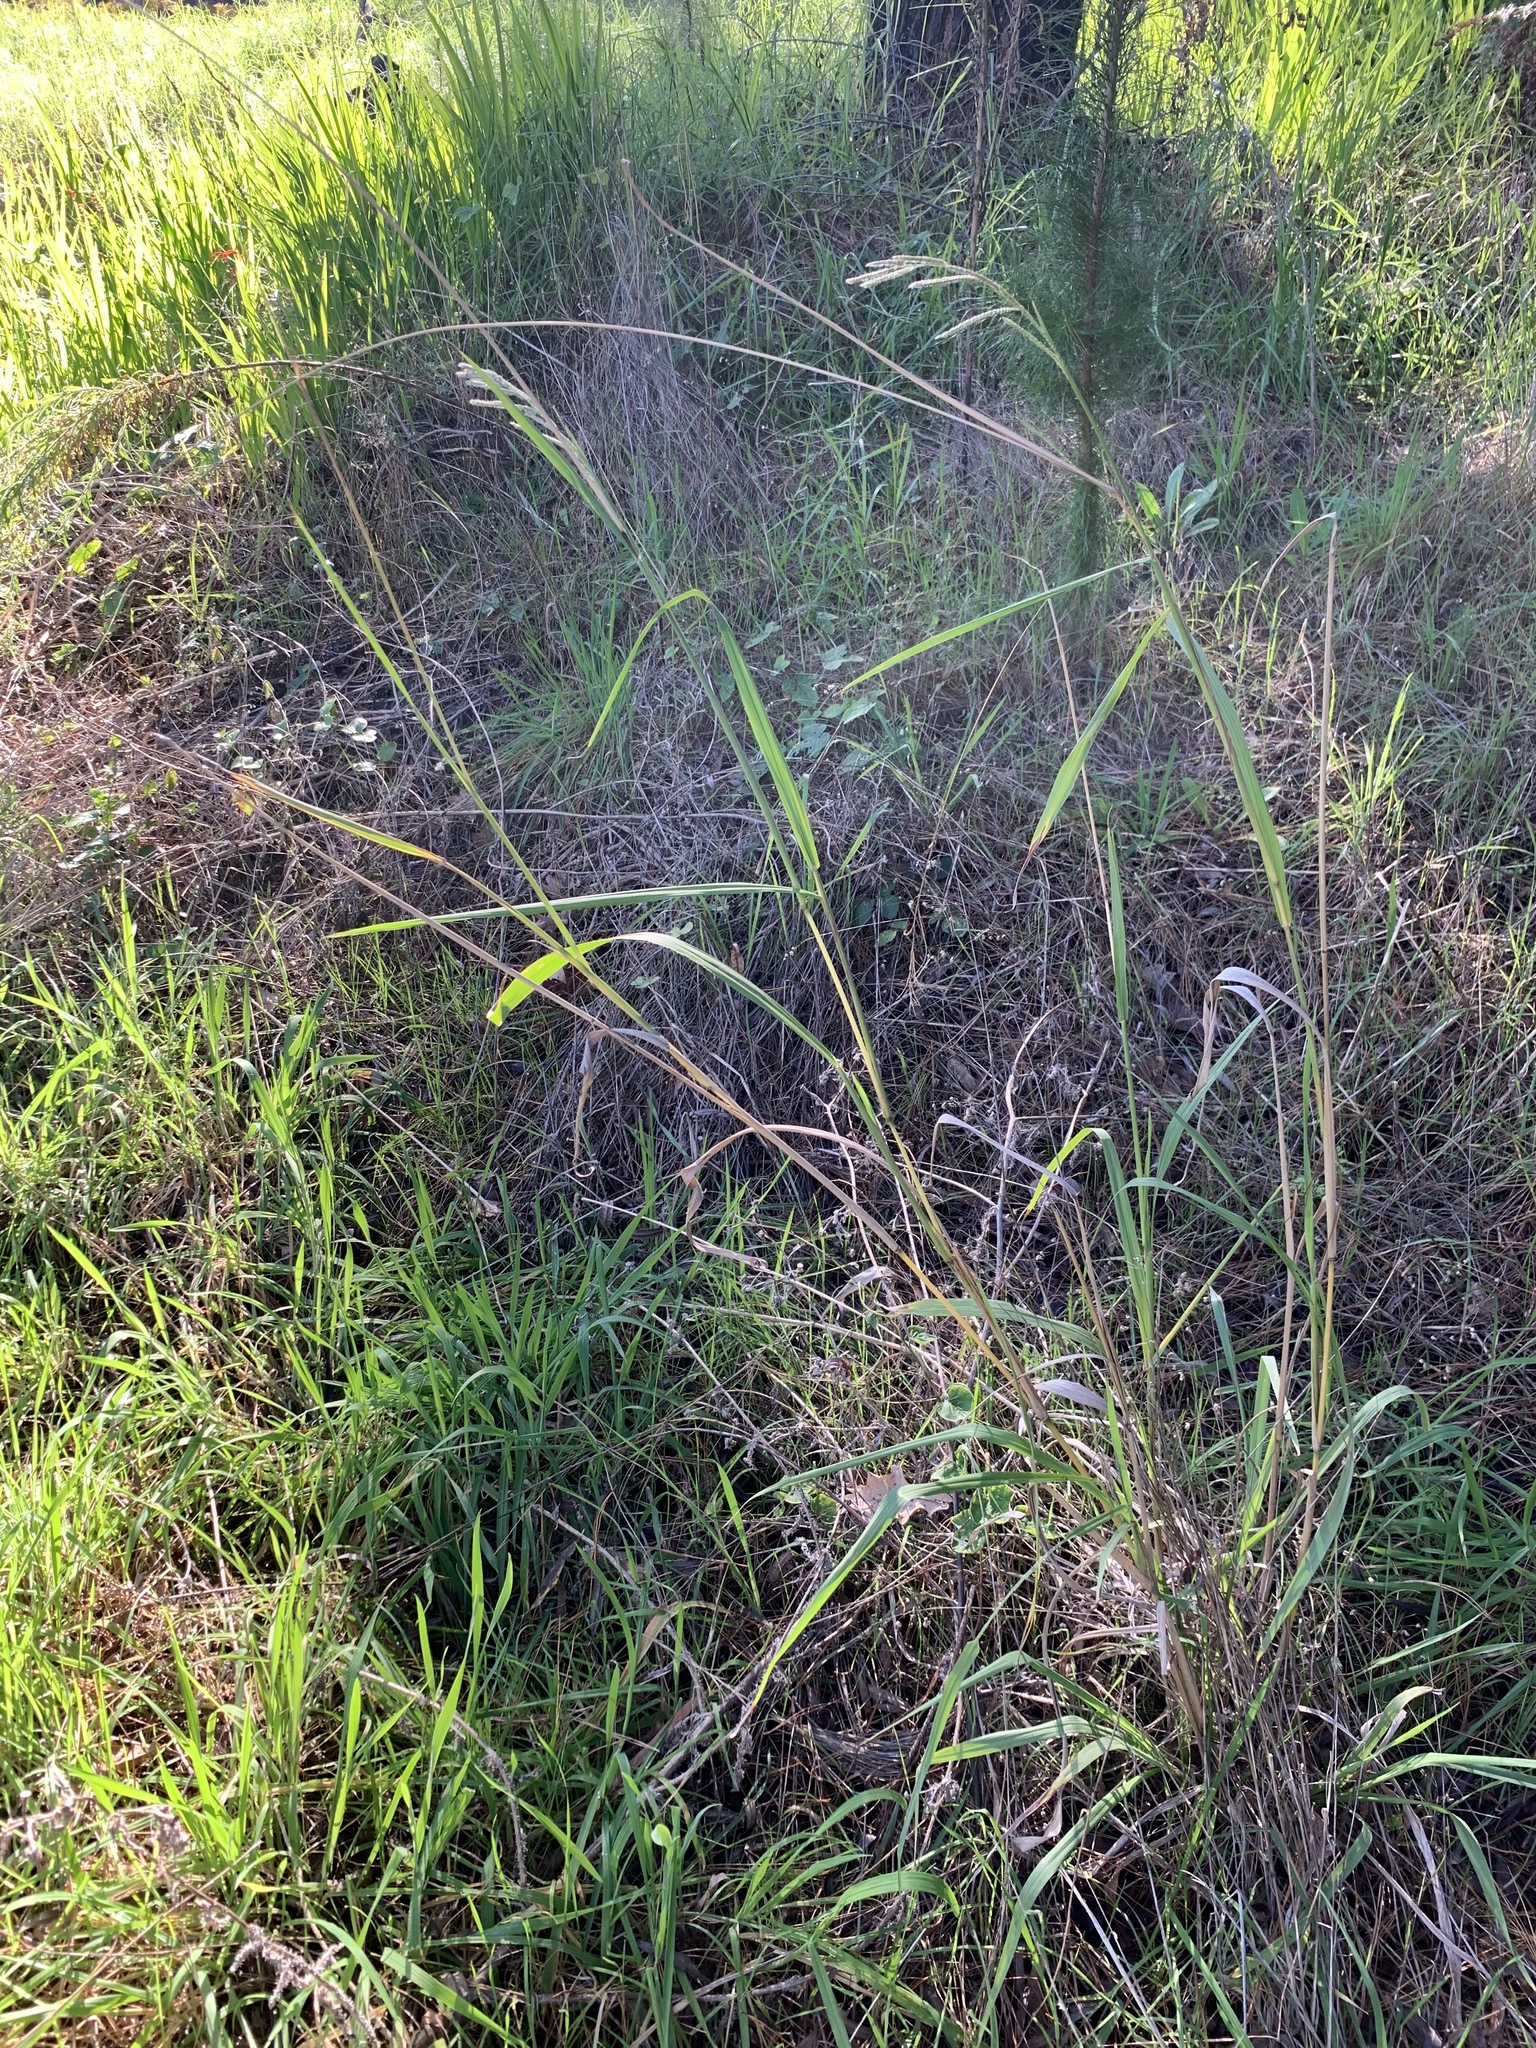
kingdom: Plantae
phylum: Tracheophyta
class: Liliopsida
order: Poales
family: Poaceae
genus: Paspalum
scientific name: Paspalum urvillei
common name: Vasey's grass
